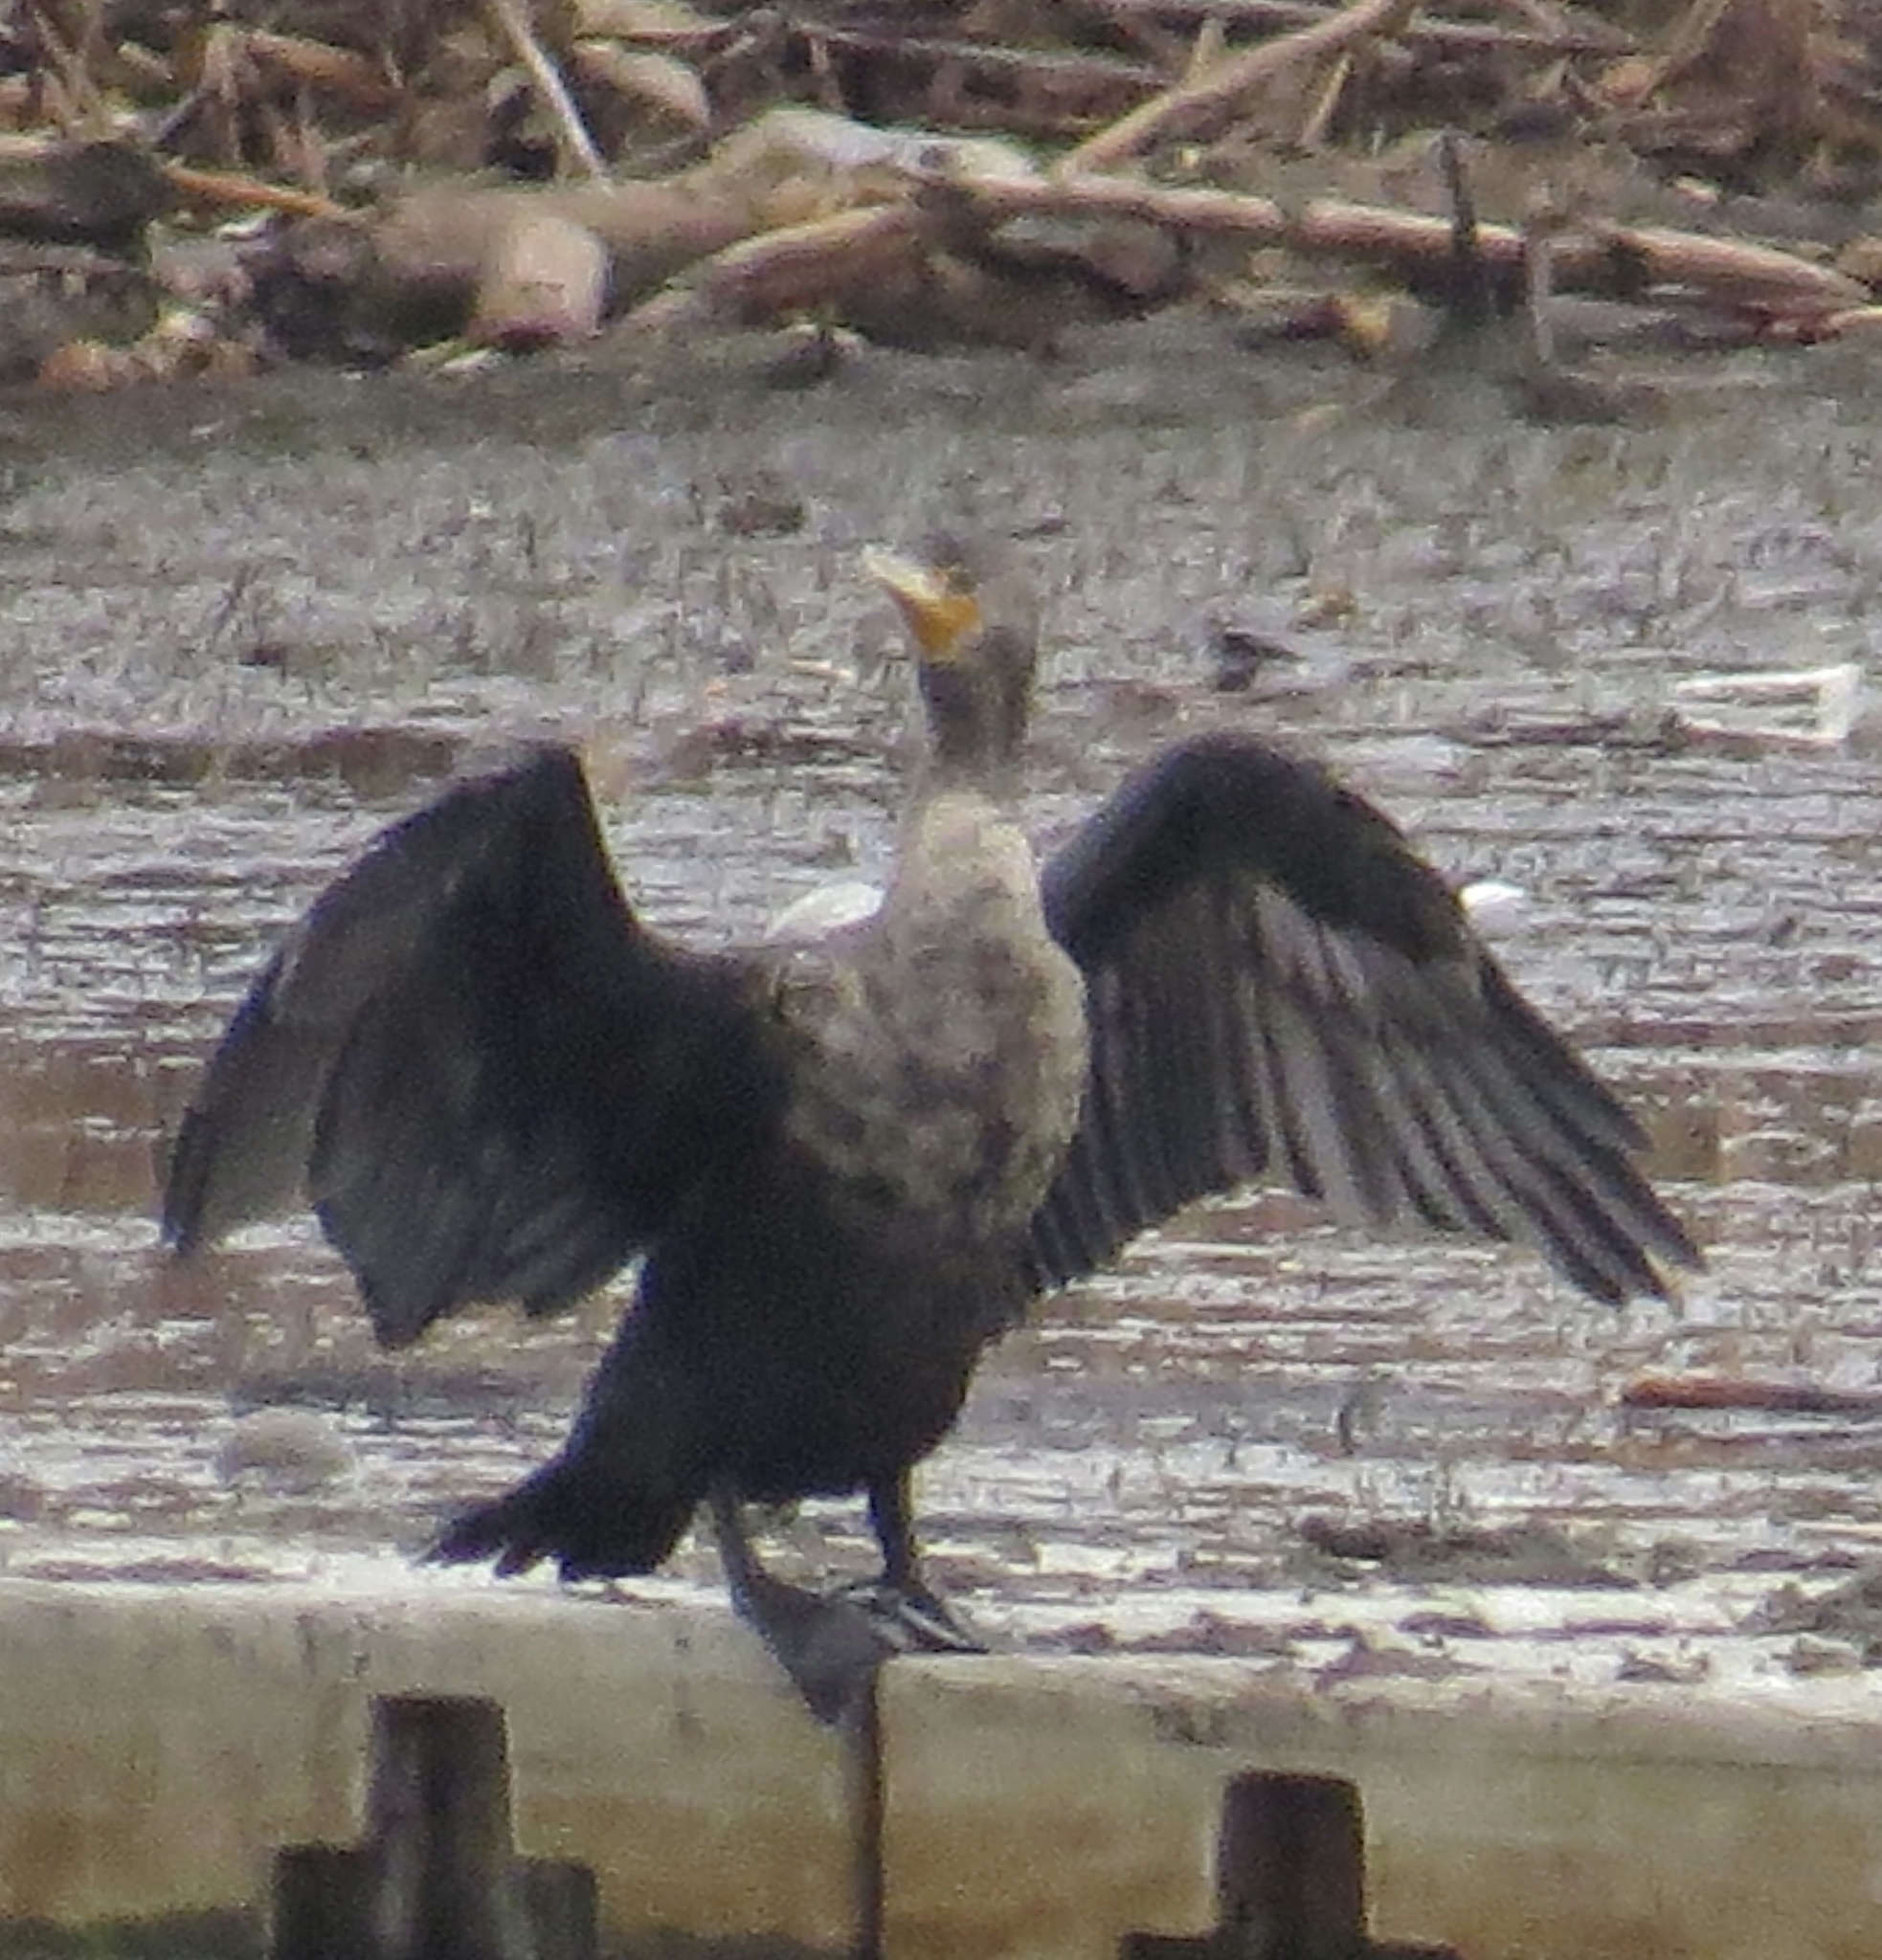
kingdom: Animalia
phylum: Chordata
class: Aves
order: Suliformes
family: Phalacrocoracidae
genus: Phalacrocorax
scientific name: Phalacrocorax auritus
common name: Double-crested cormorant
